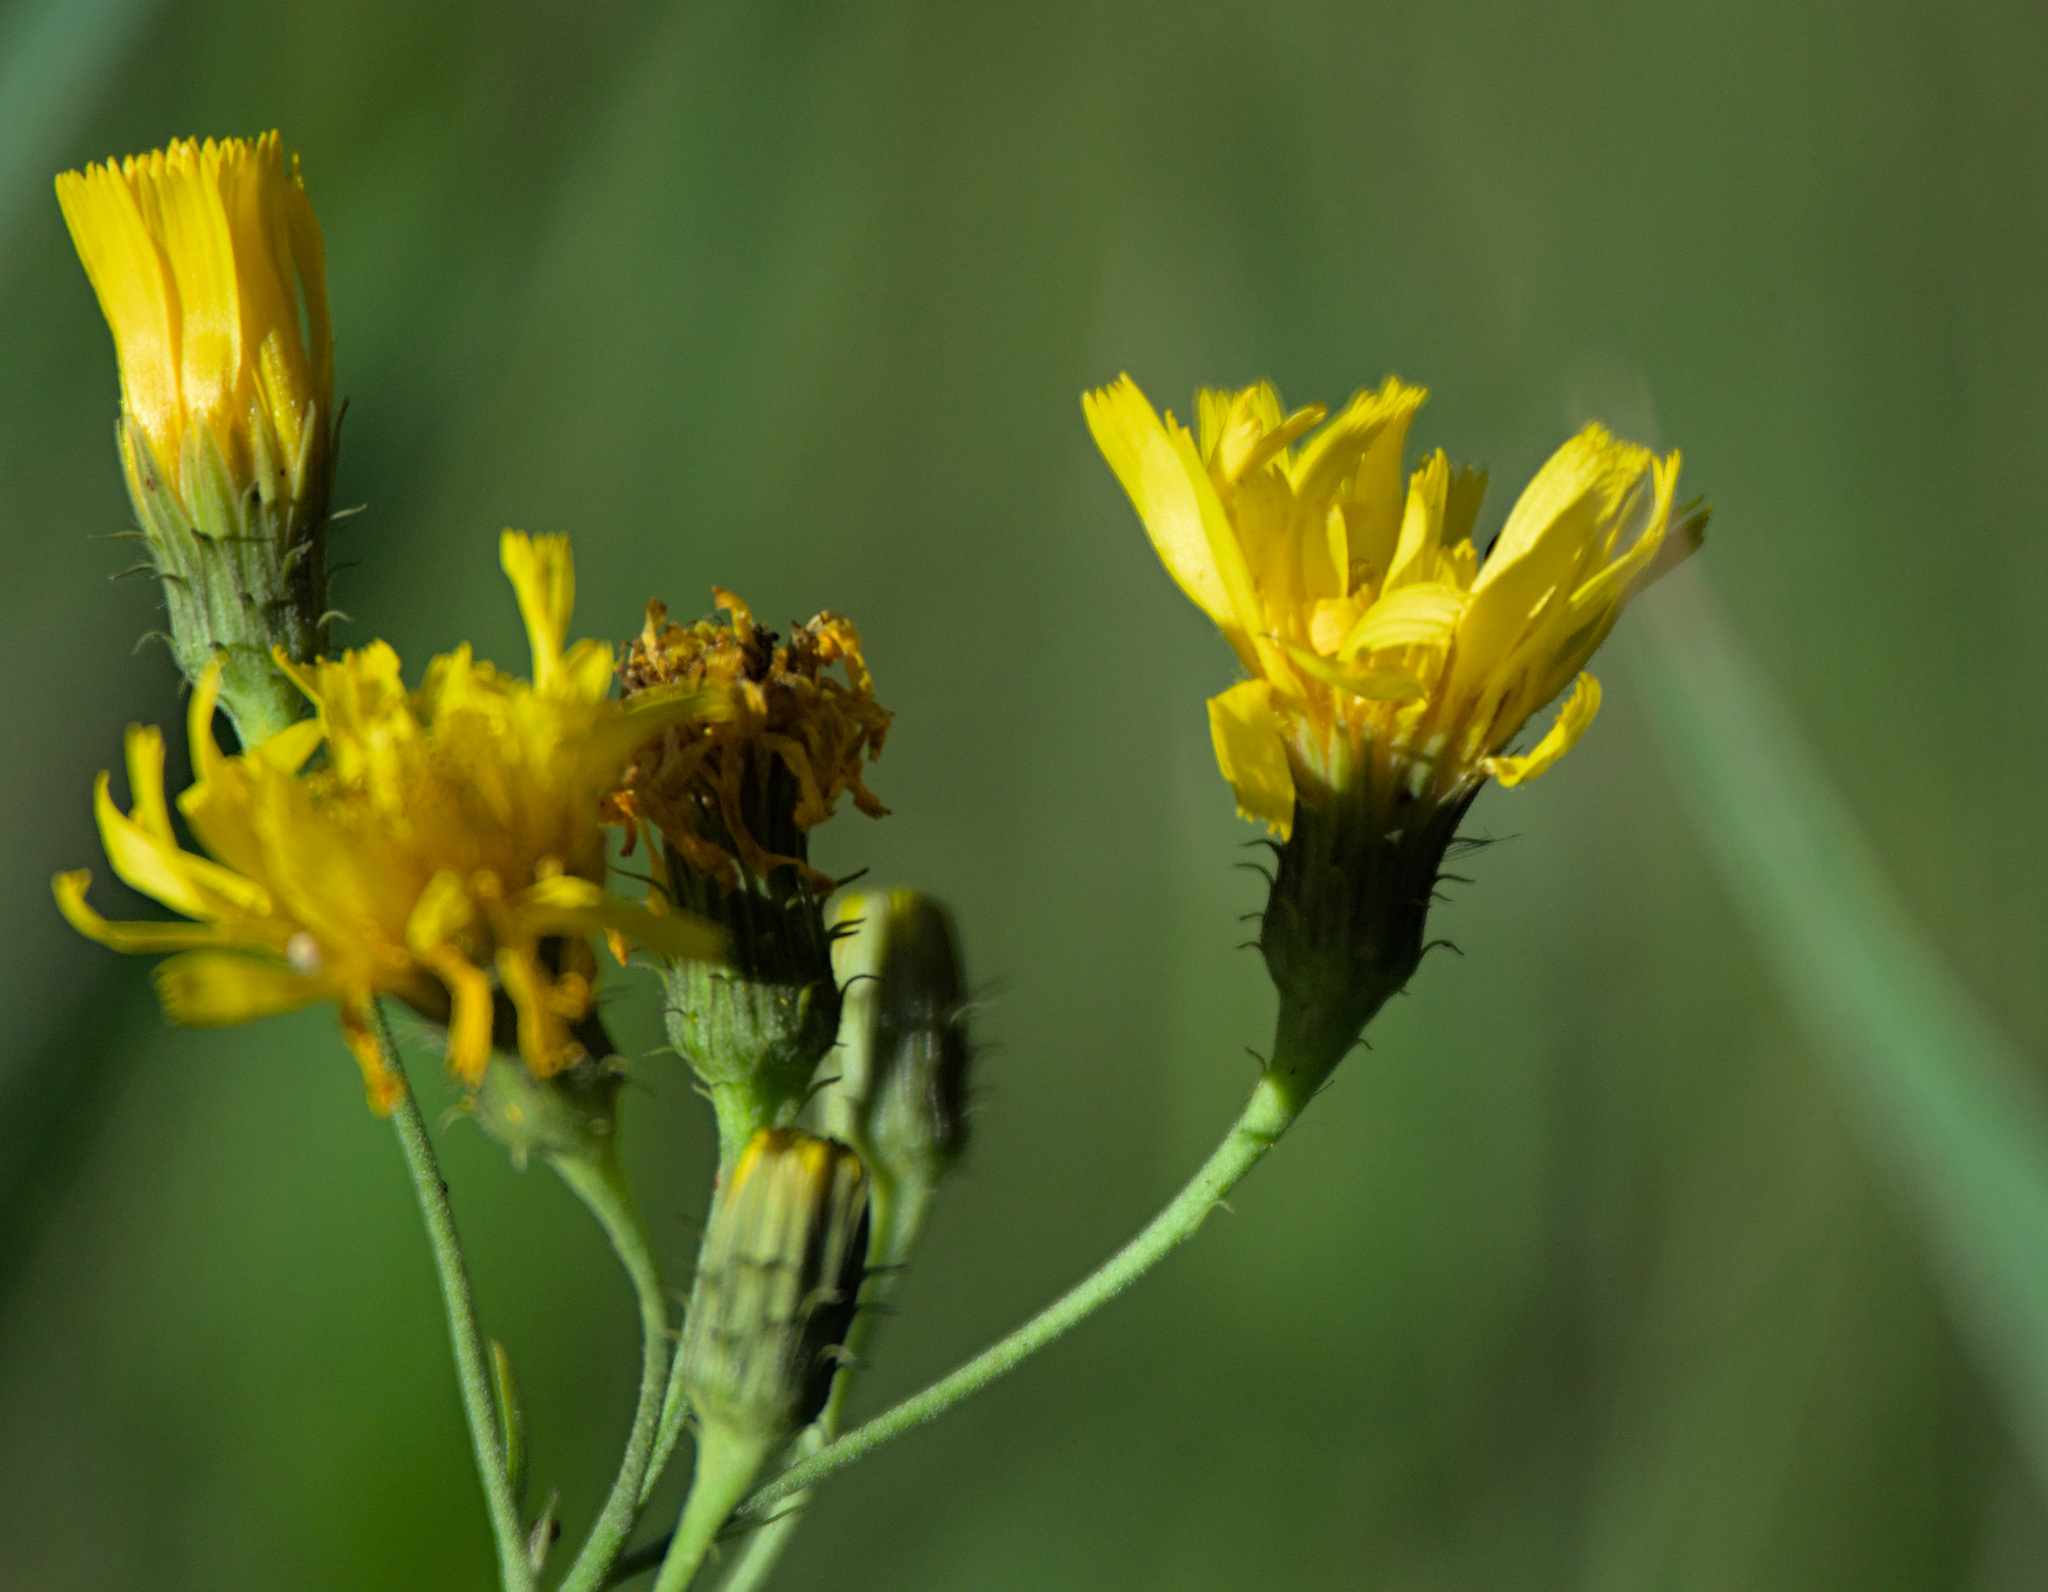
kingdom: Plantae
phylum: Tracheophyta
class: Magnoliopsida
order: Asterales
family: Asteraceae
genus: Hieracium
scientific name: Hieracium umbellatum
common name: Northern hawkweed
